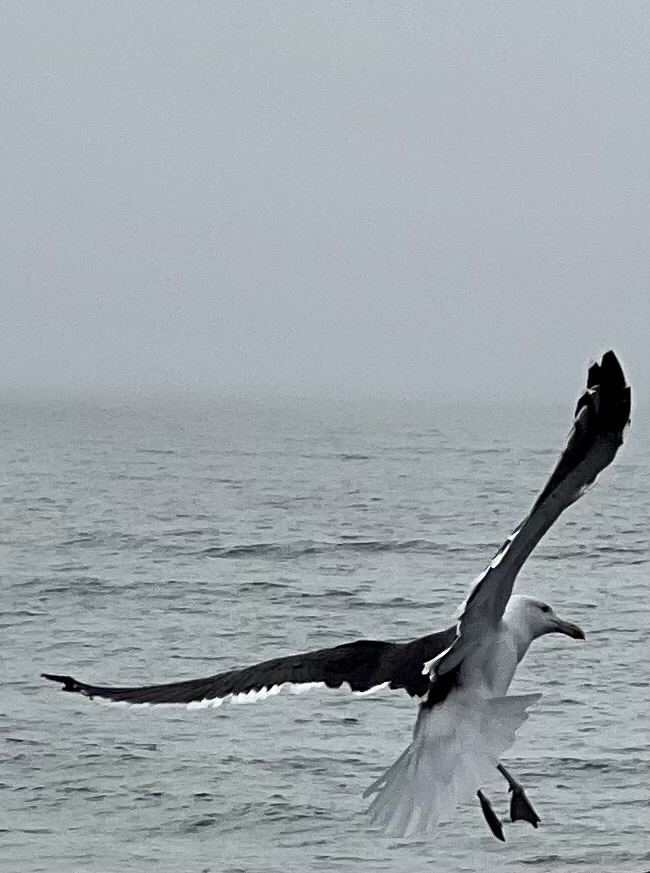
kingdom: Animalia
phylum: Chordata
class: Aves
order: Charadriiformes
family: Laridae
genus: Larus
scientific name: Larus dominicanus
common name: Kelp gull
